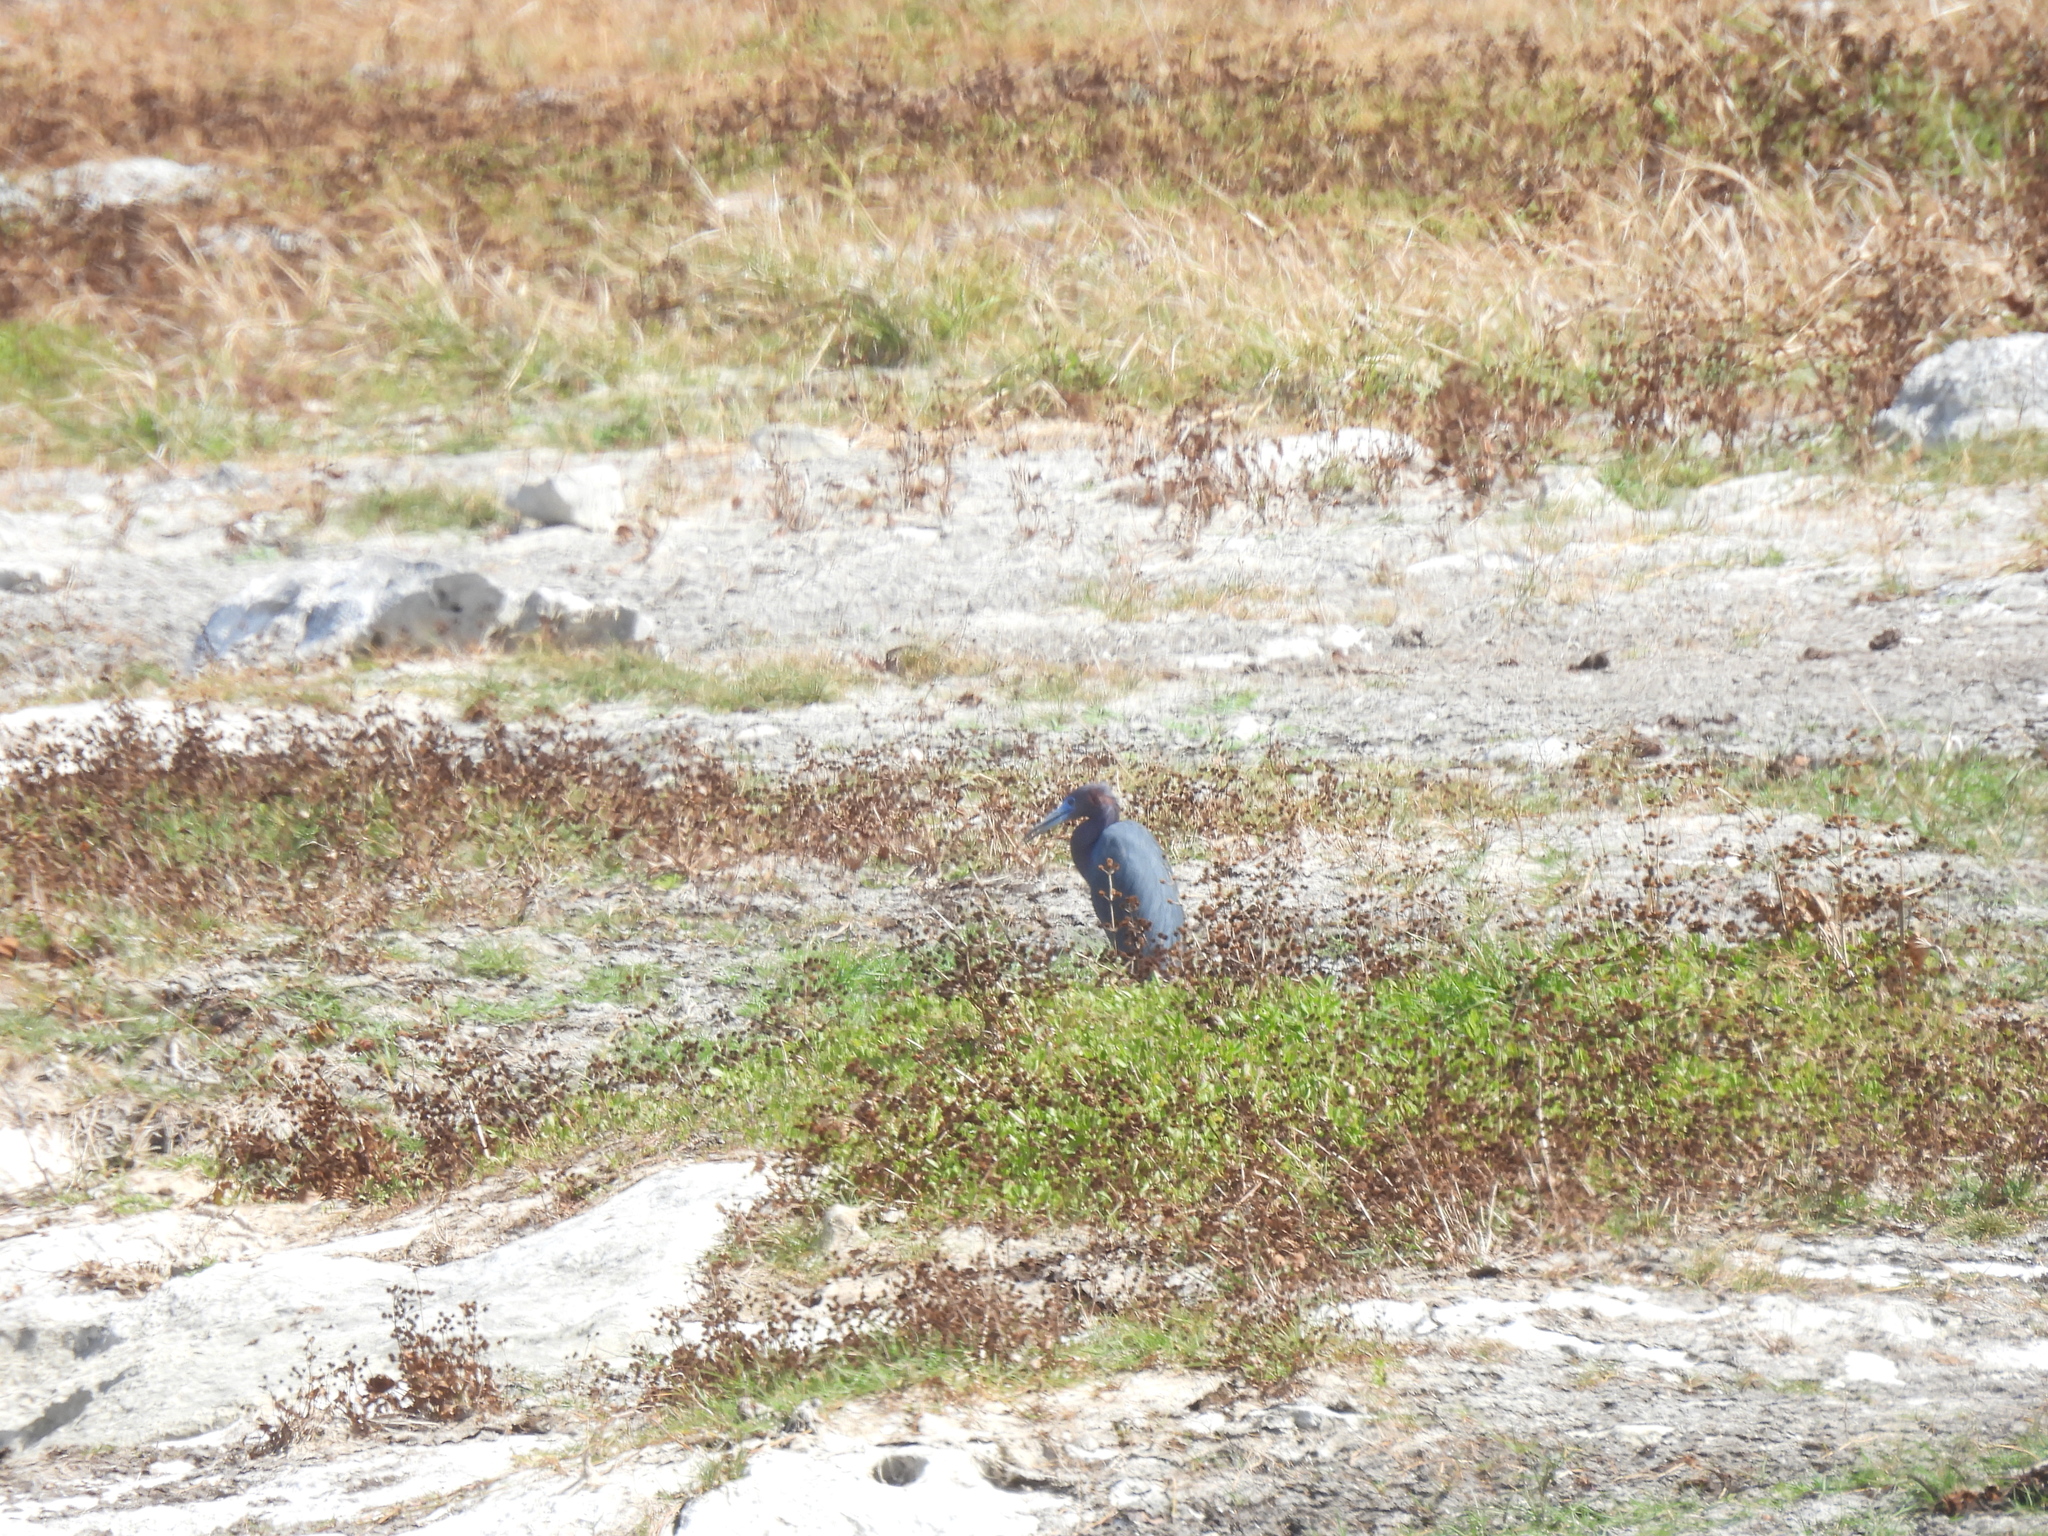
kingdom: Animalia
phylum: Chordata
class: Aves
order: Pelecaniformes
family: Ardeidae
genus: Egretta
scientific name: Egretta caerulea
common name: Little blue heron
